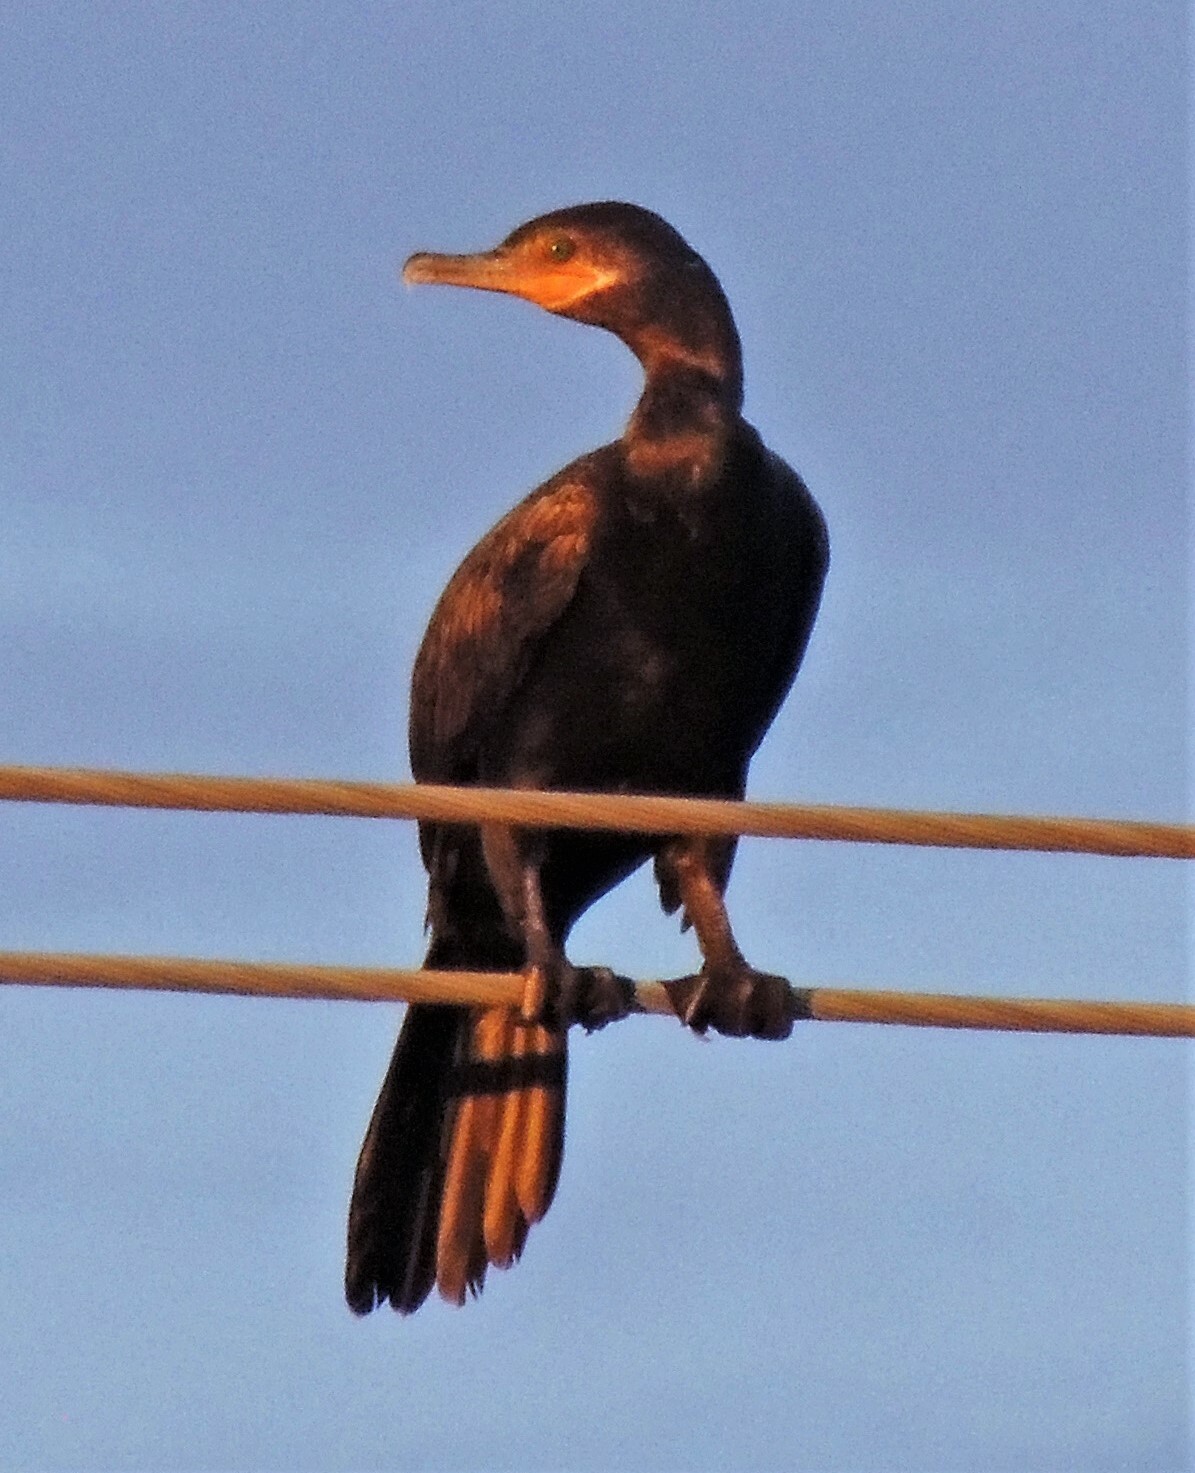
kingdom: Animalia
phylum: Chordata
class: Aves
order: Suliformes
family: Phalacrocoracidae
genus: Phalacrocorax
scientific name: Phalacrocorax brasilianus
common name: Neotropic cormorant
